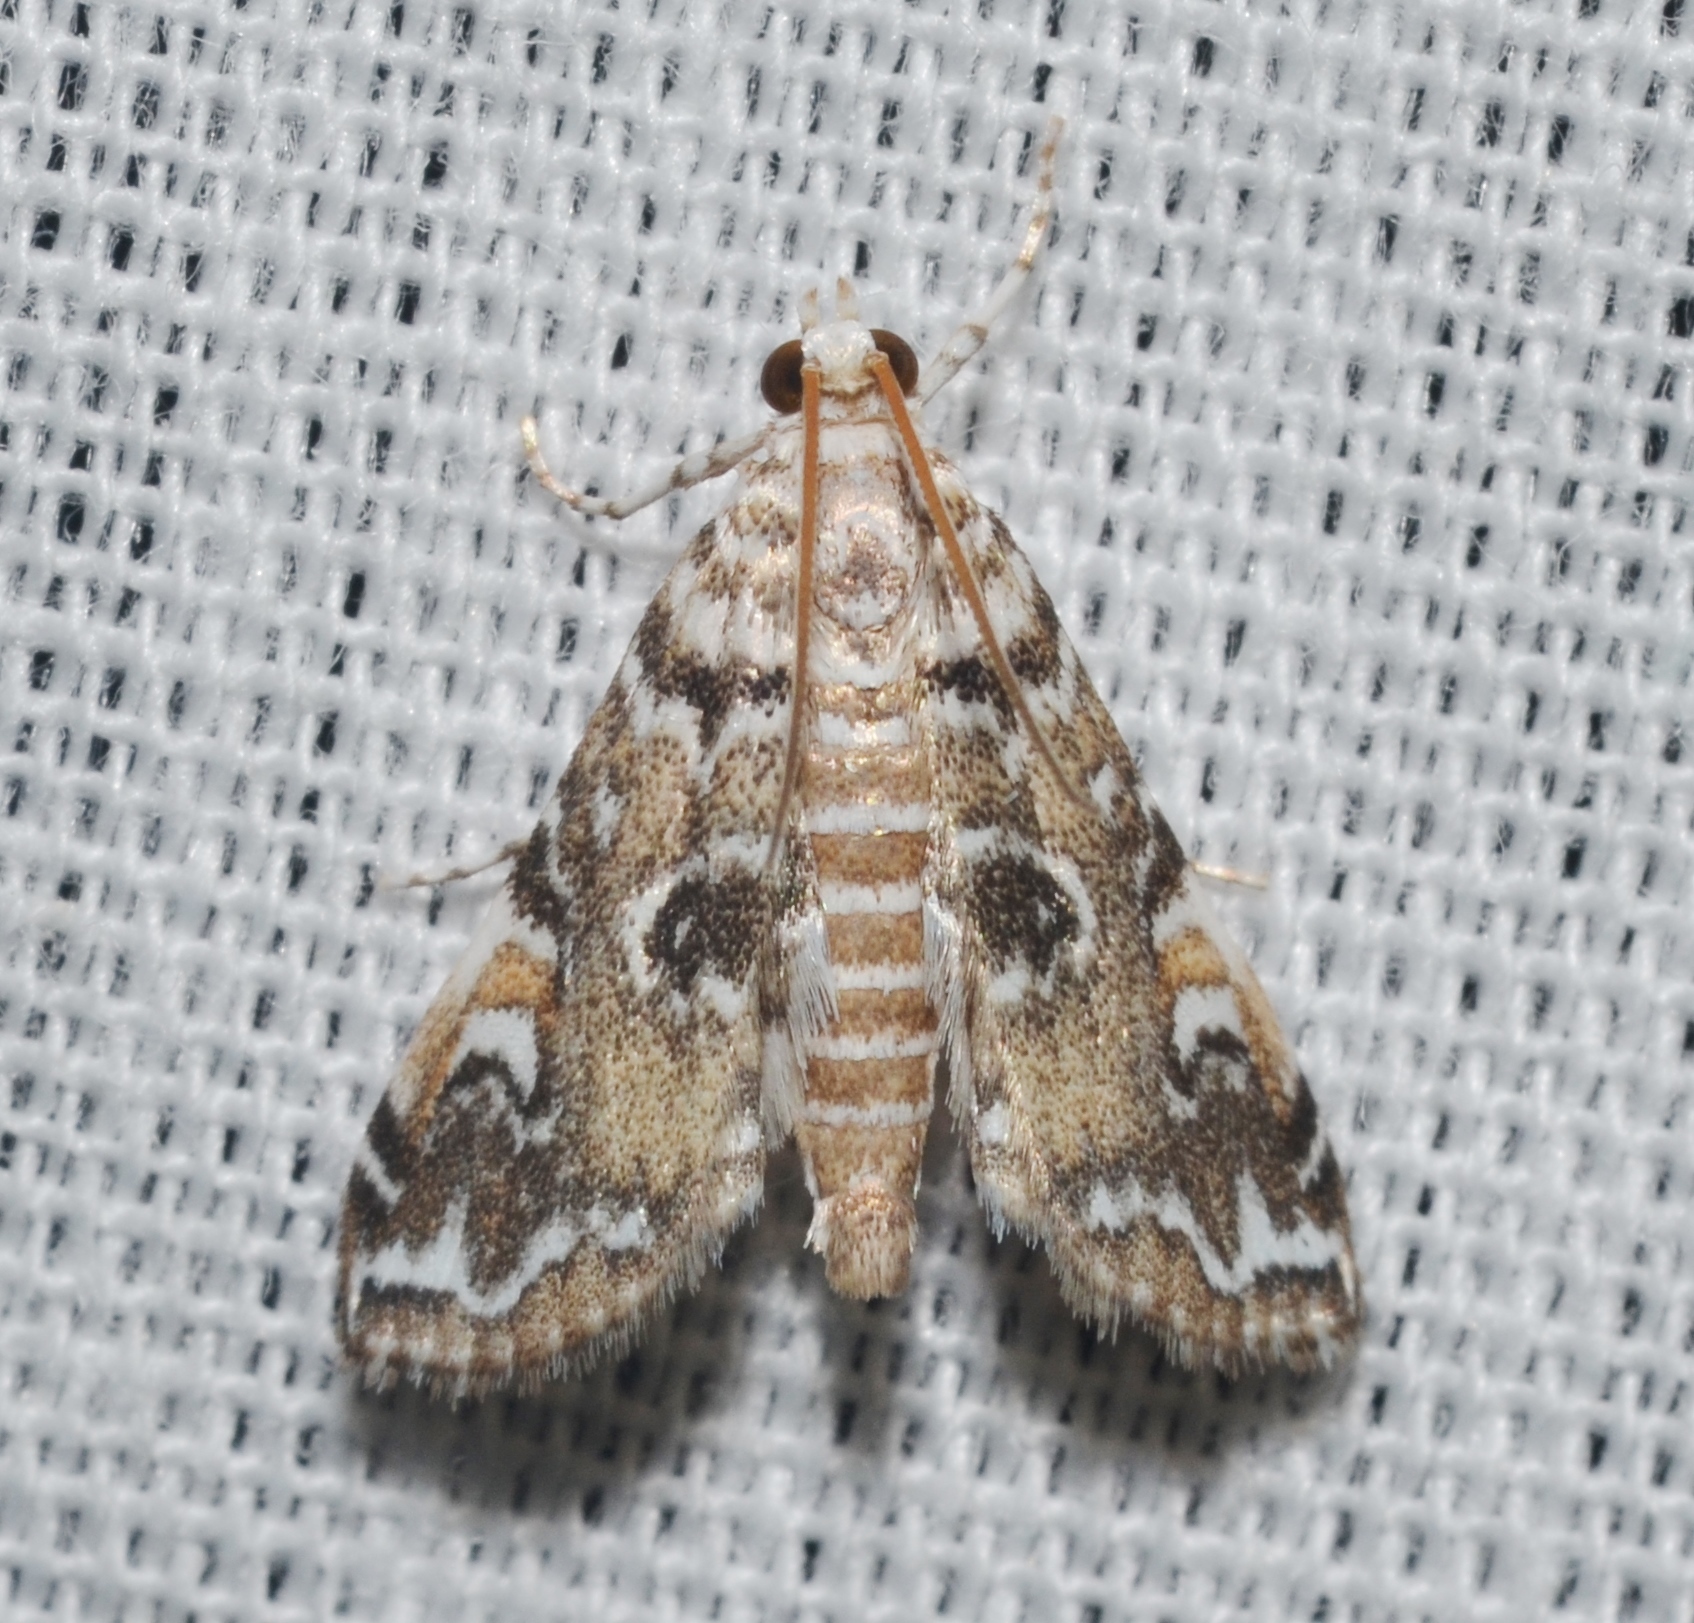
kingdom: Animalia
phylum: Arthropoda
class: Insecta
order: Lepidoptera
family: Crambidae
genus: Elophila
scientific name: Elophila gyralis
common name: Waterlily borer moth
